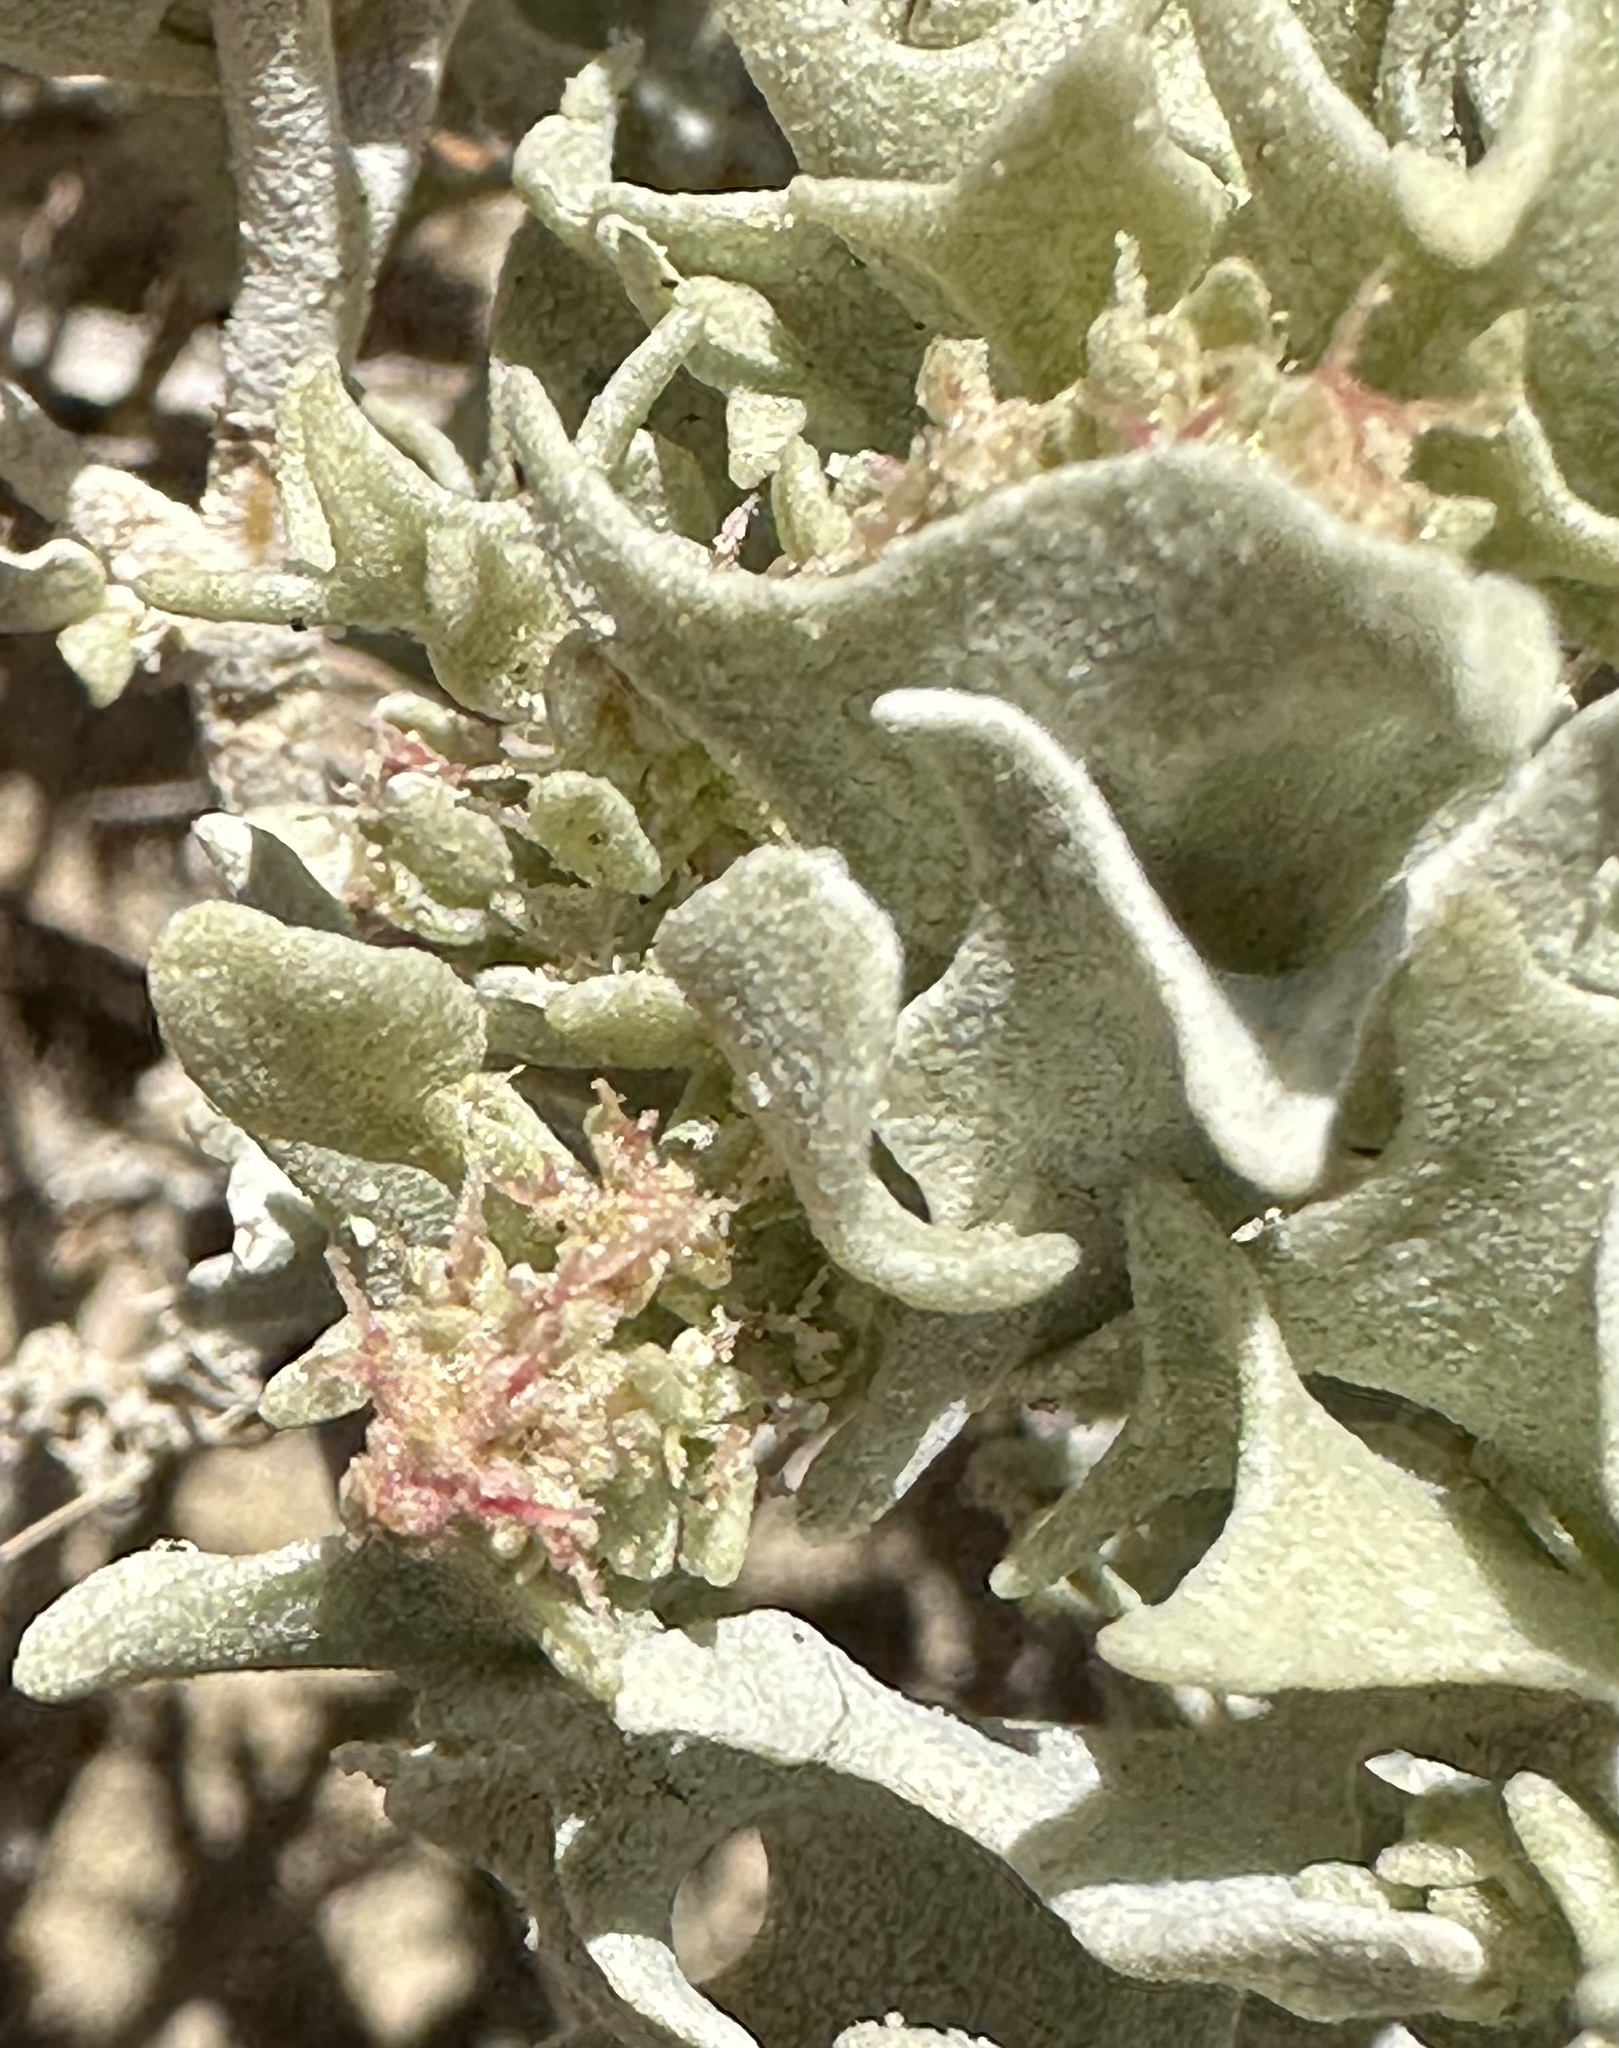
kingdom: Plantae
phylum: Tracheophyta
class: Magnoliopsida
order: Caryophyllales
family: Amaranthaceae
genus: Atriplex
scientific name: Atriplex hymenelytra
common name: Desert-holly
